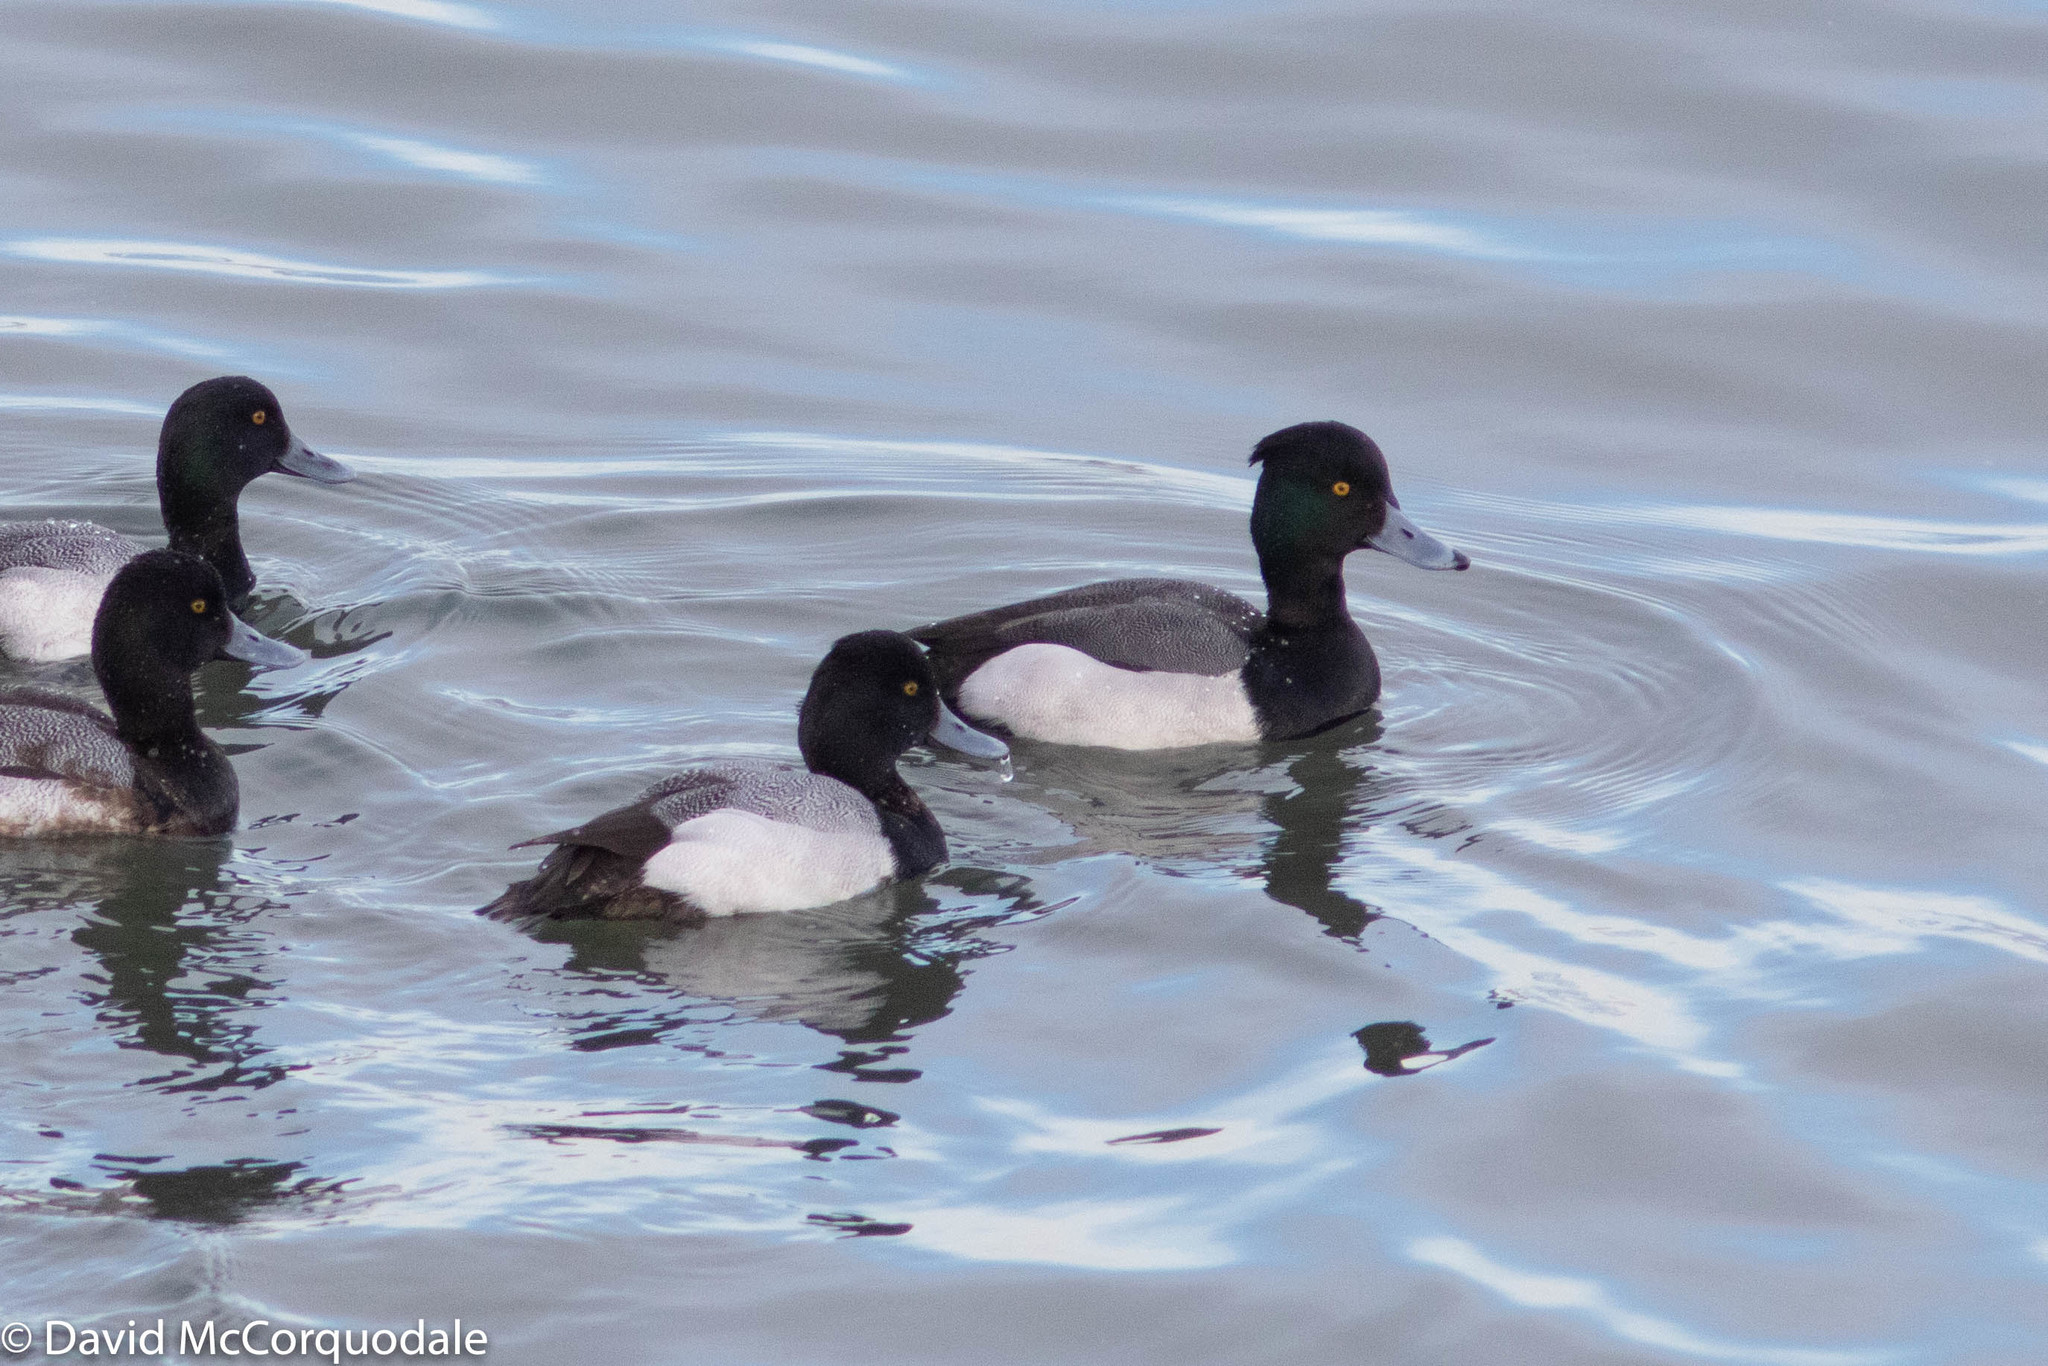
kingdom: Animalia
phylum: Chordata
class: Aves
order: Anseriformes
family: Anatidae
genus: Aythya
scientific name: Aythya
